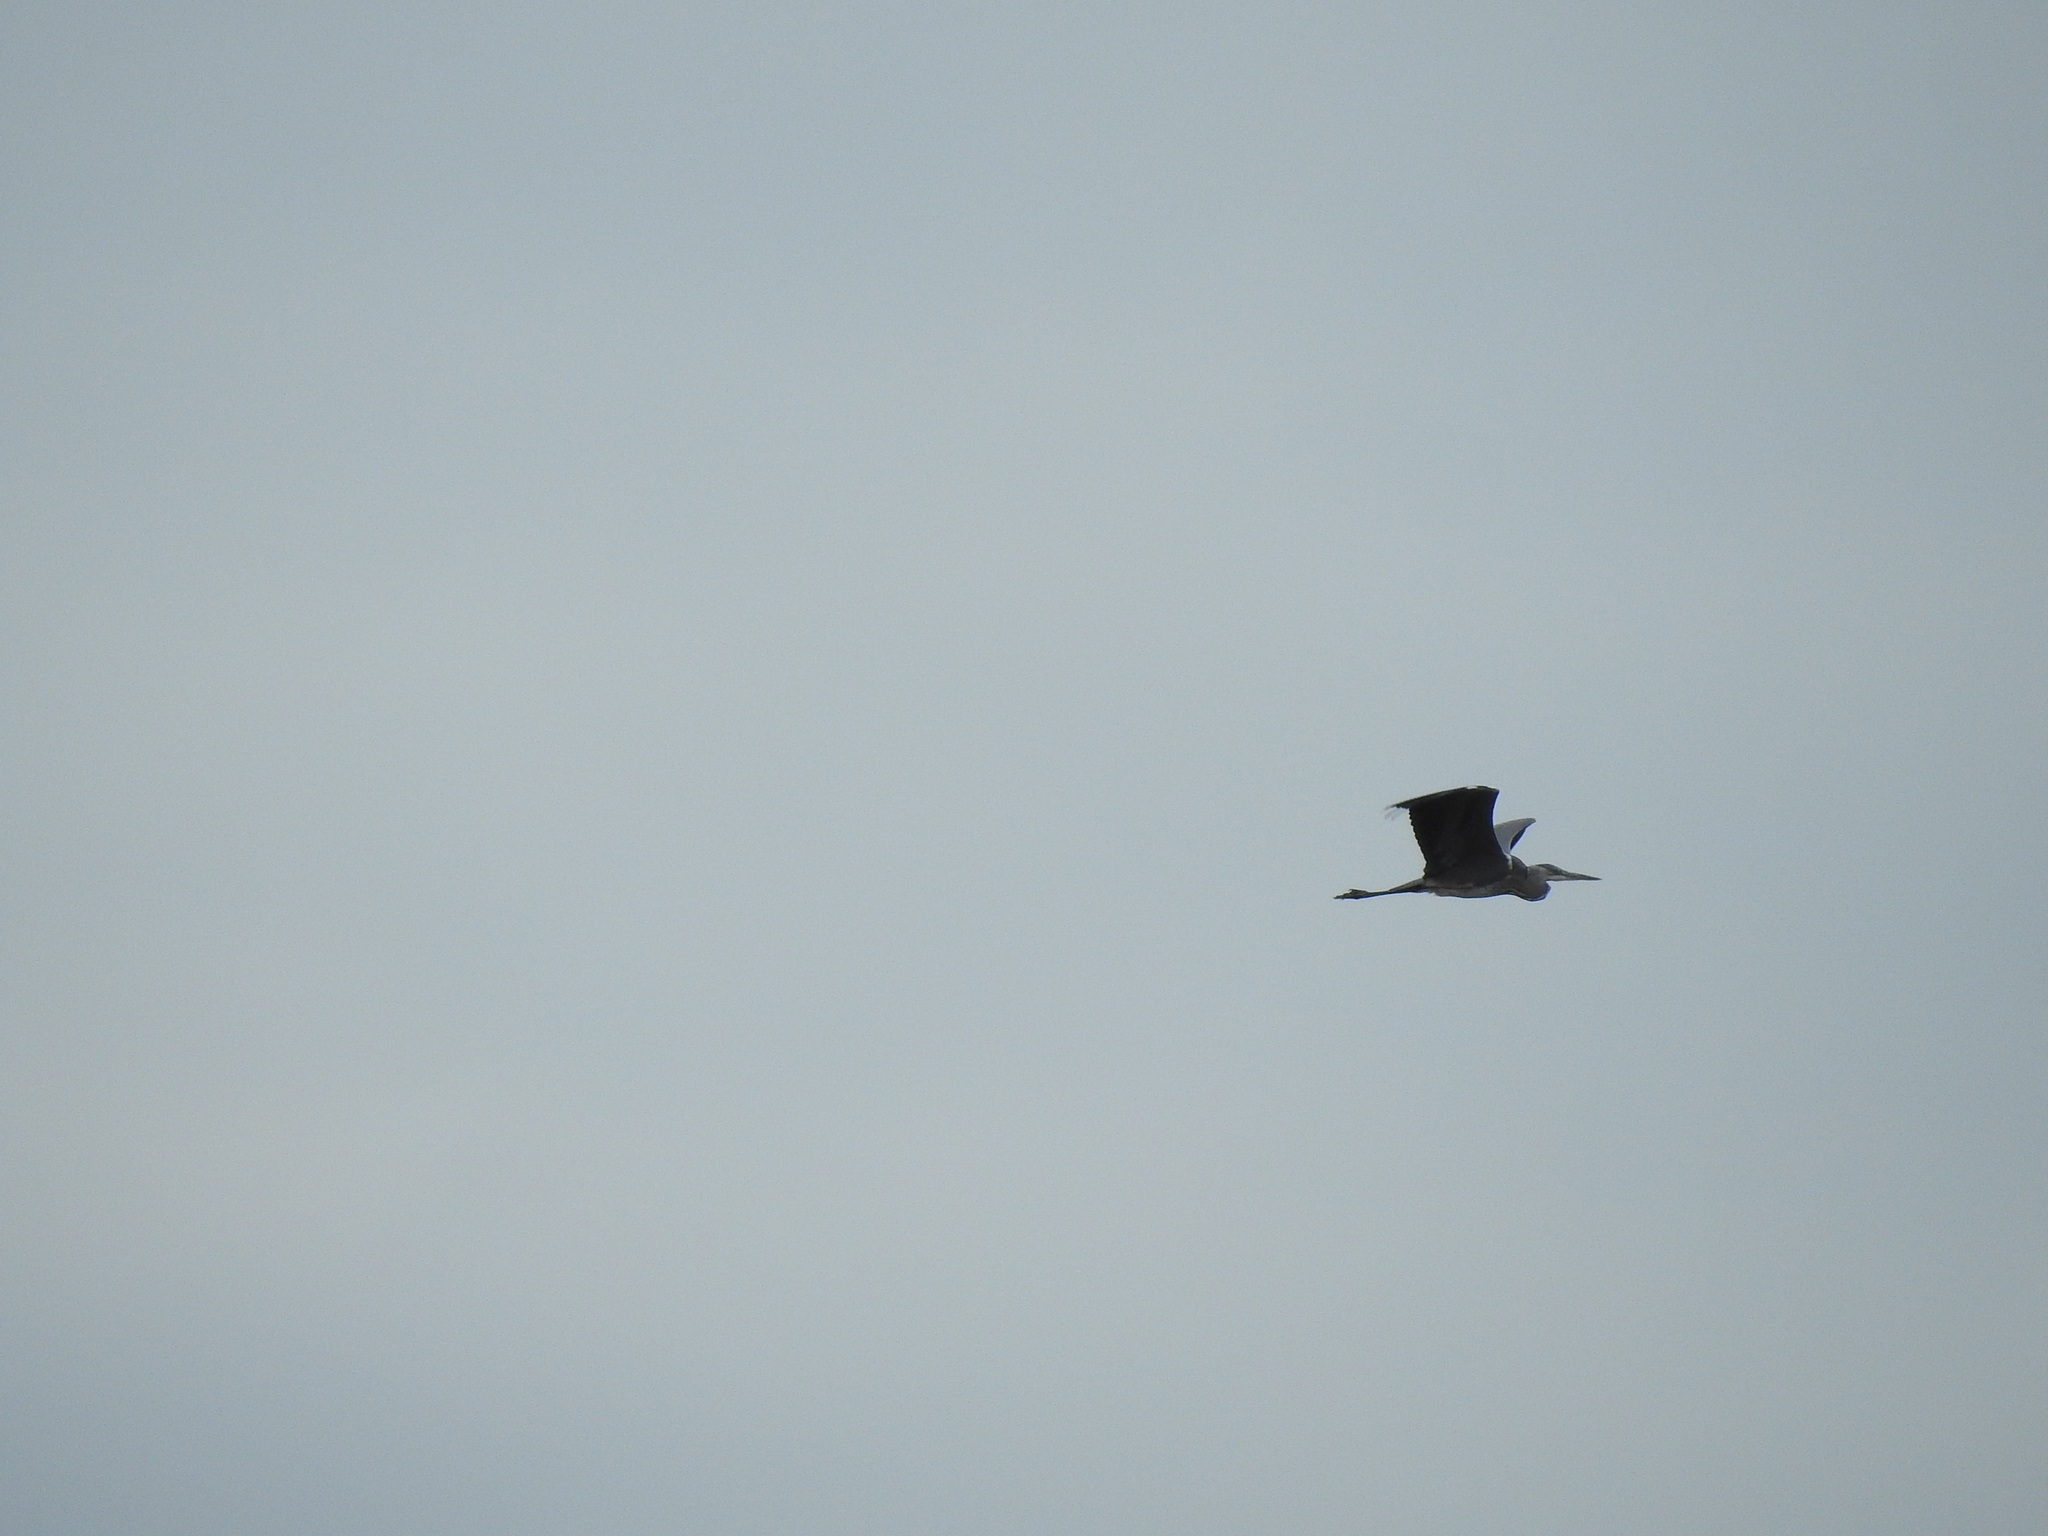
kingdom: Animalia
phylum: Chordata
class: Aves
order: Pelecaniformes
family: Ardeidae
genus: Ardea
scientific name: Ardea cinerea
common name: Grey heron
